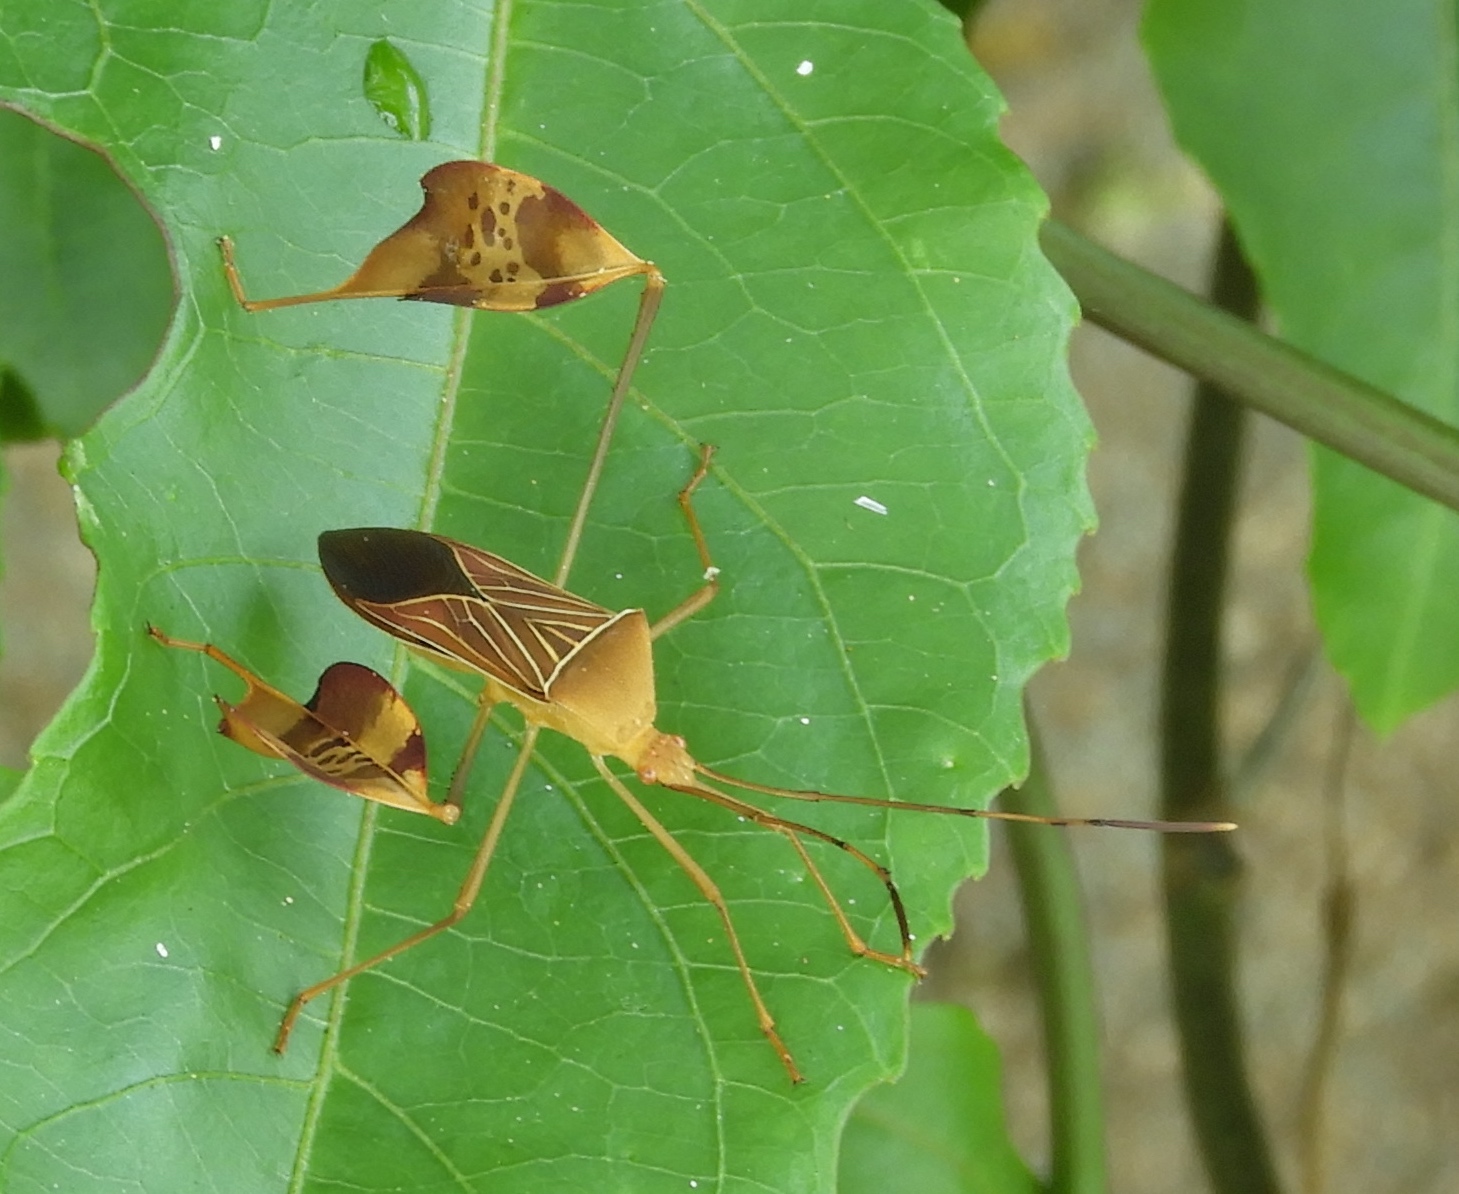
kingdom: Animalia
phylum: Arthropoda
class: Insecta
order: Hemiptera
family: Coreidae
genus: Bitta
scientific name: Bitta
